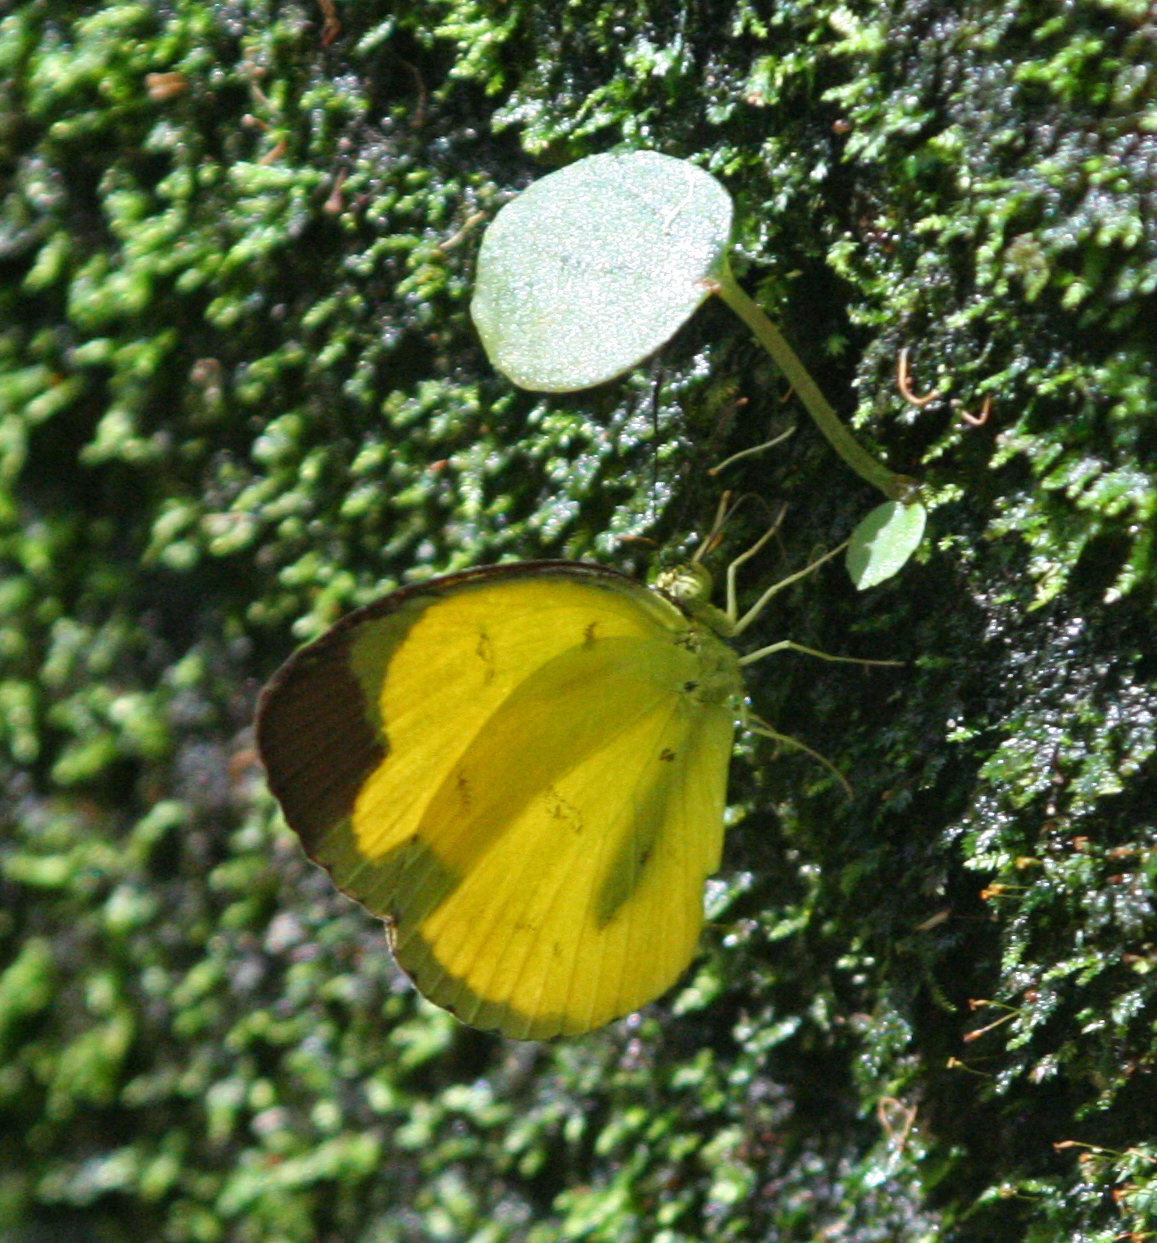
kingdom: Animalia
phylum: Arthropoda
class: Insecta
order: Lepidoptera
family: Pieridae
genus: Eurema
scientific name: Eurema sari
